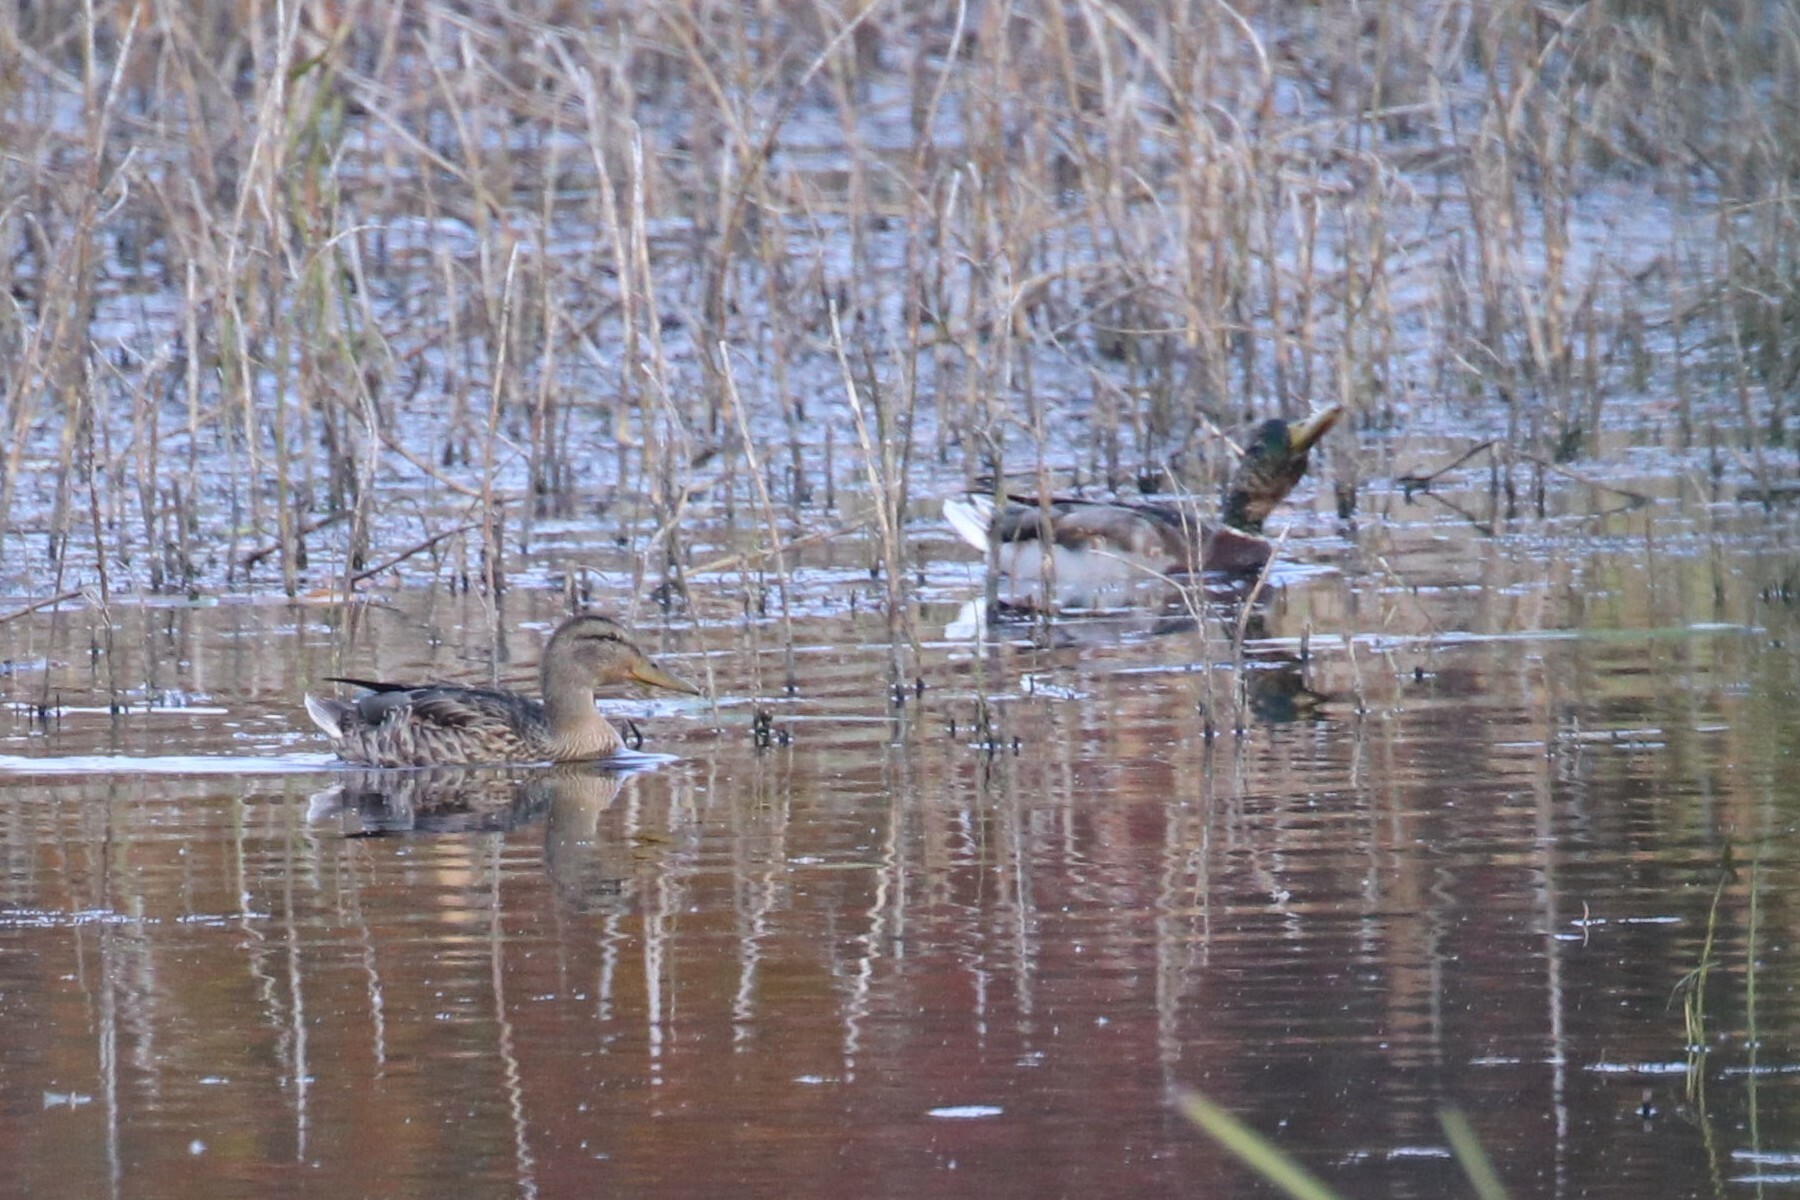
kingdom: Animalia
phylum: Chordata
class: Aves
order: Anseriformes
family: Anatidae
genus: Anas
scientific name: Anas platyrhynchos
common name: Mallard
